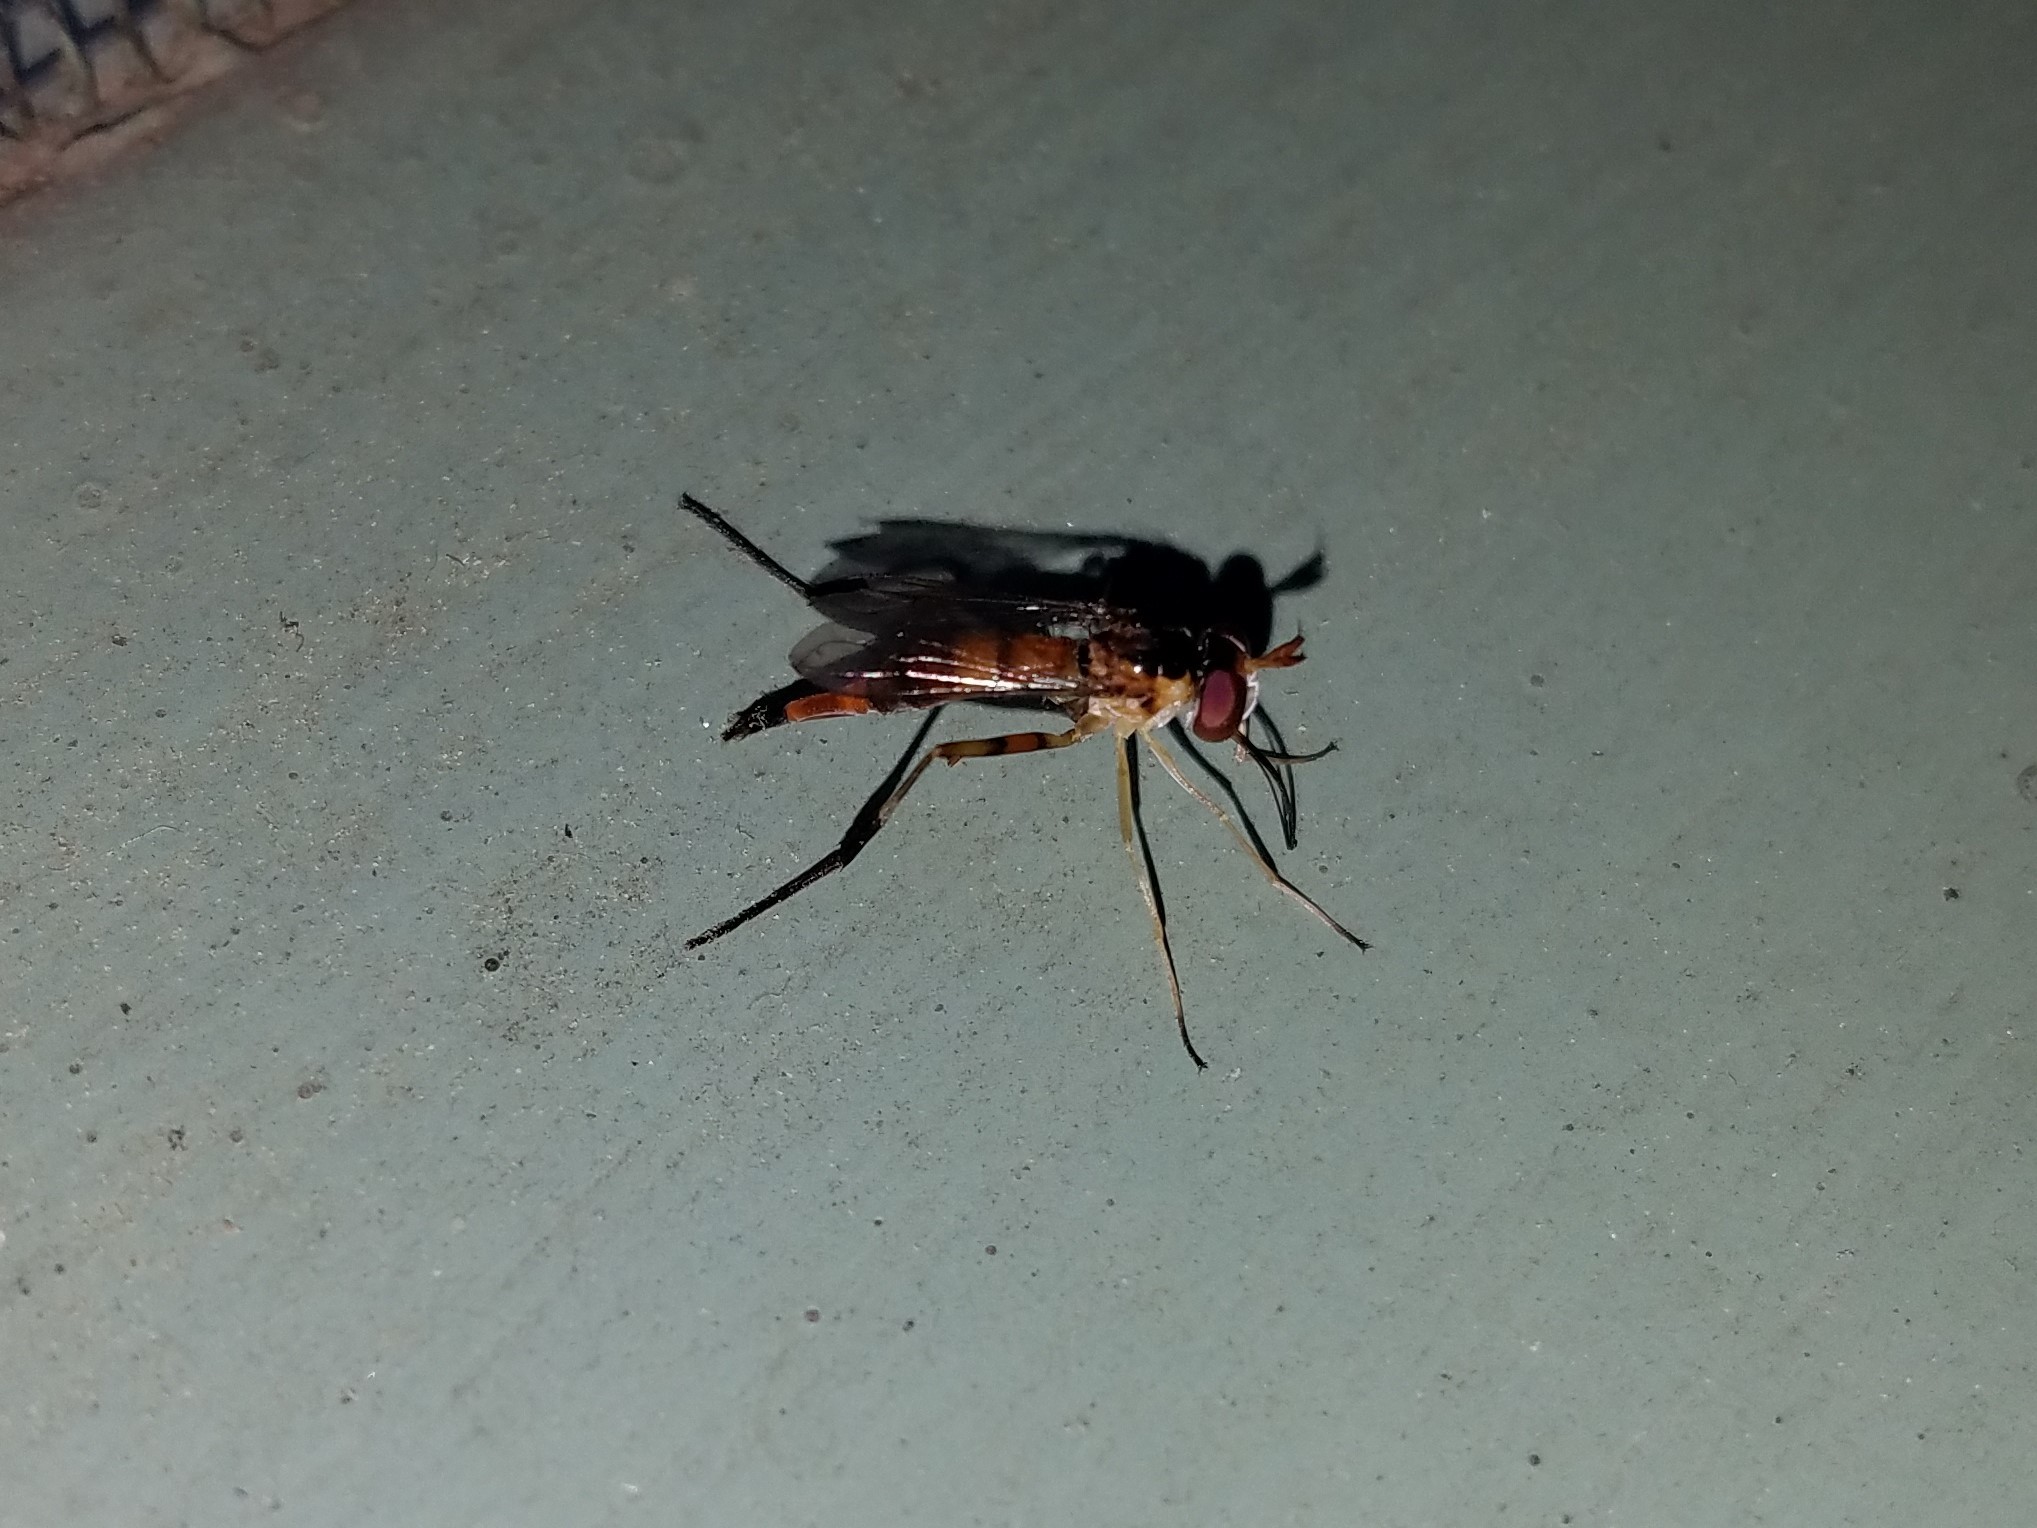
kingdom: Animalia
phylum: Arthropoda
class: Insecta
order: Diptera
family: Conopidae
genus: Stylogaster
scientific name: Stylogaster biannulata
